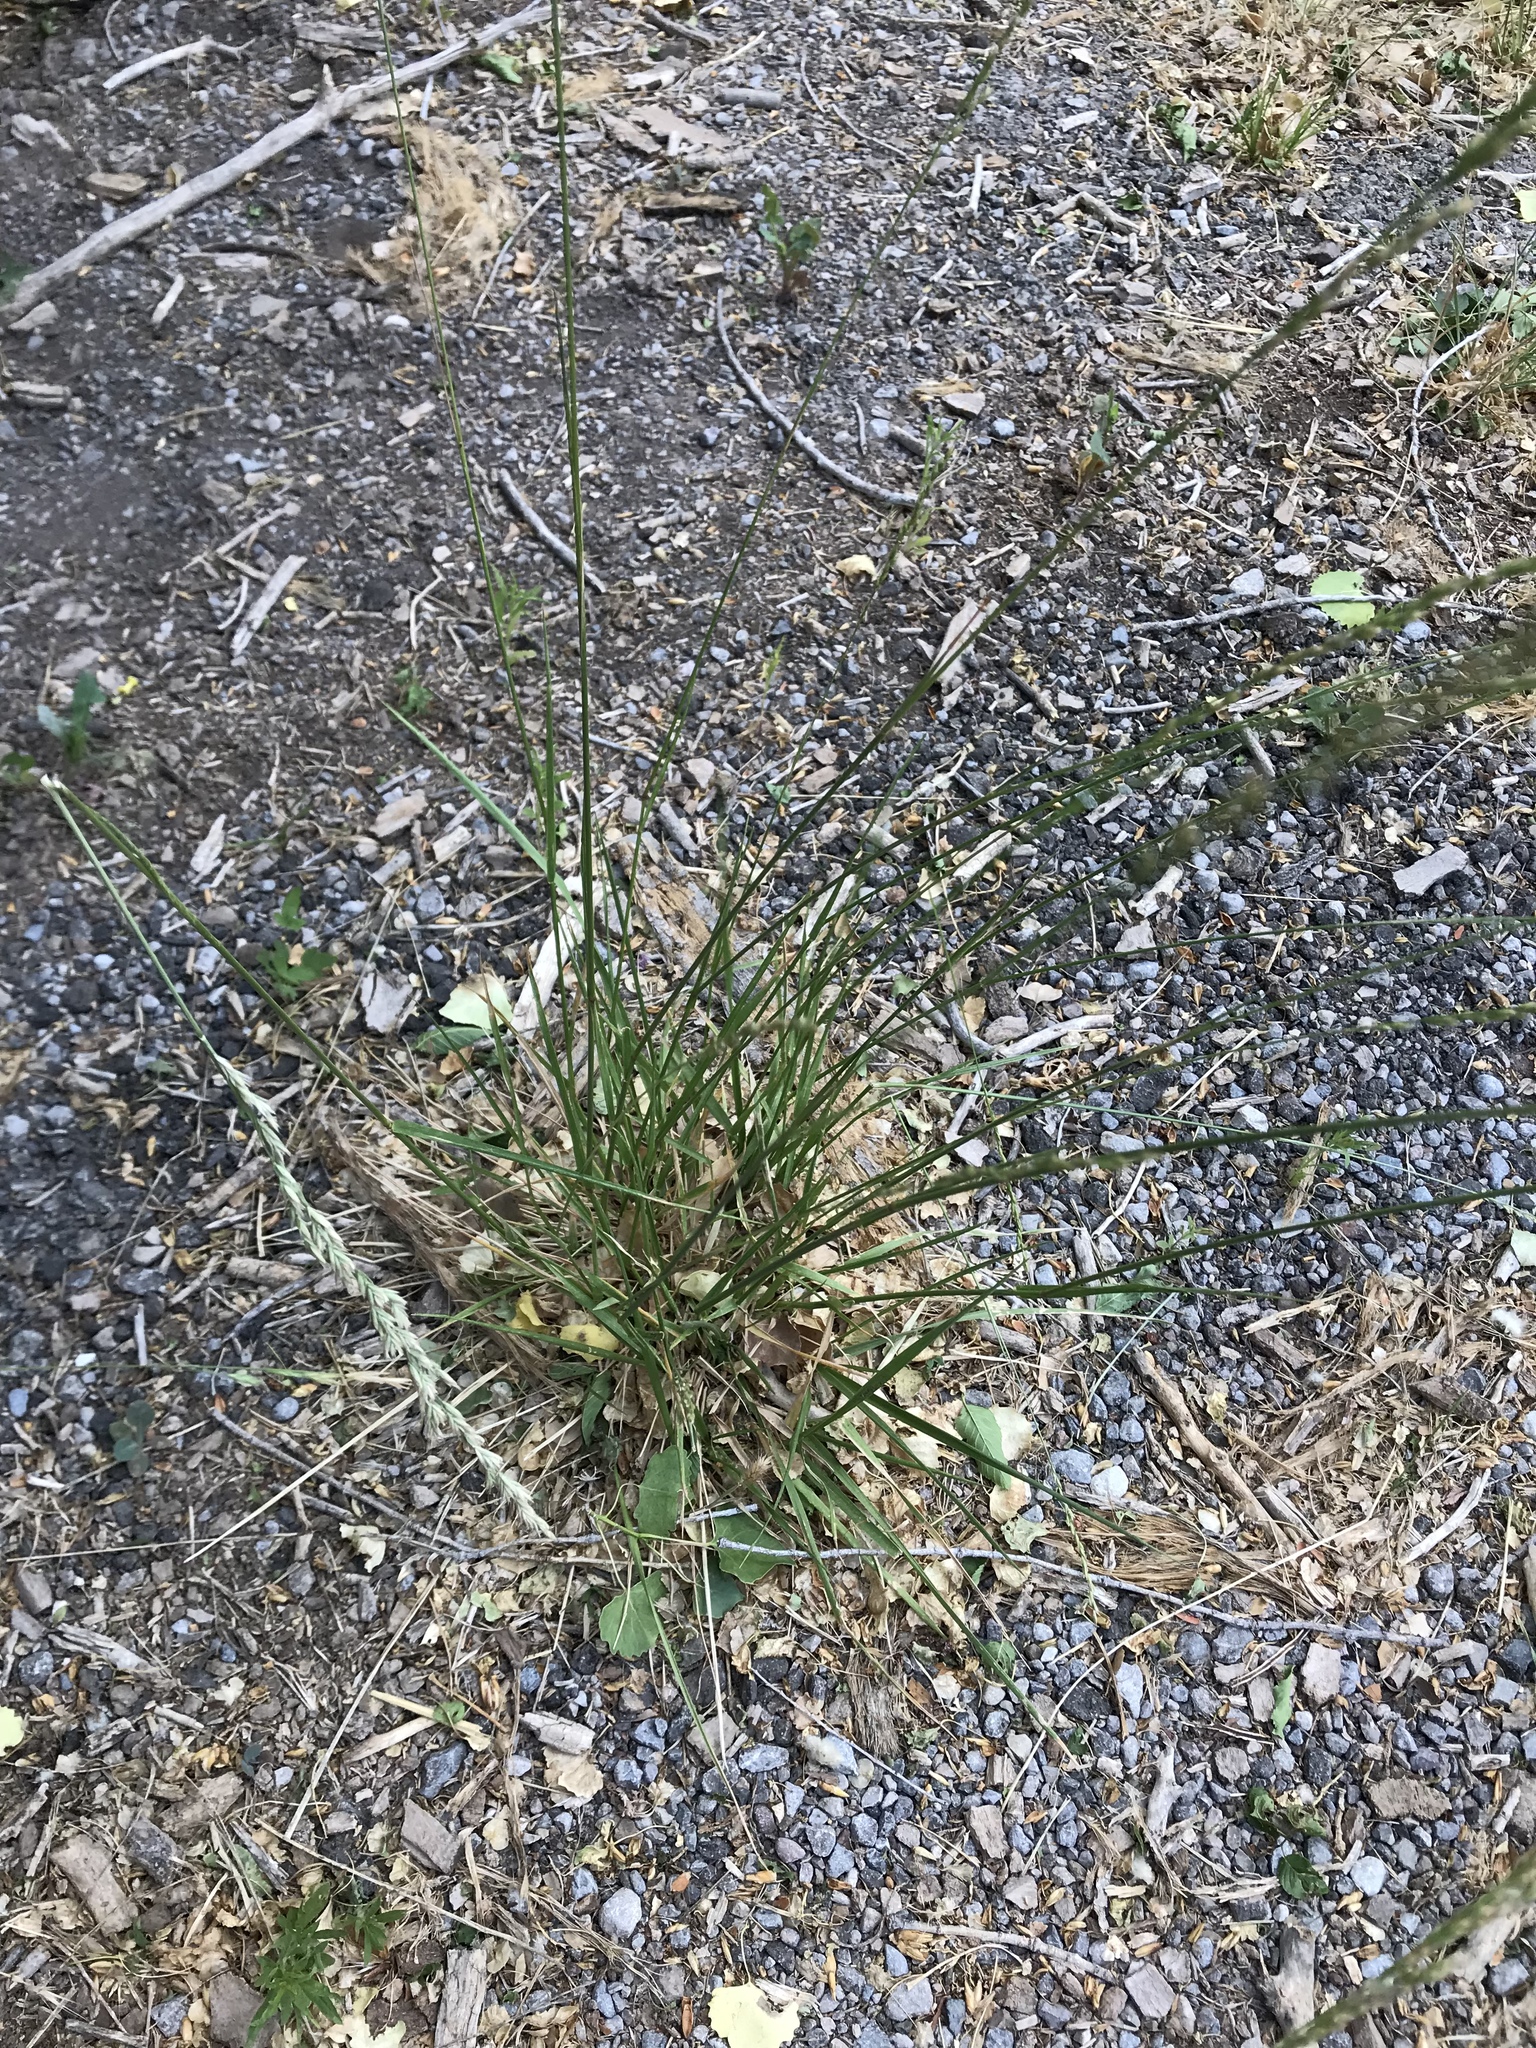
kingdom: Plantae
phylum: Tracheophyta
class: Liliopsida
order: Poales
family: Poaceae
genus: Lolium
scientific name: Lolium arundinaceum
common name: Reed fescue
